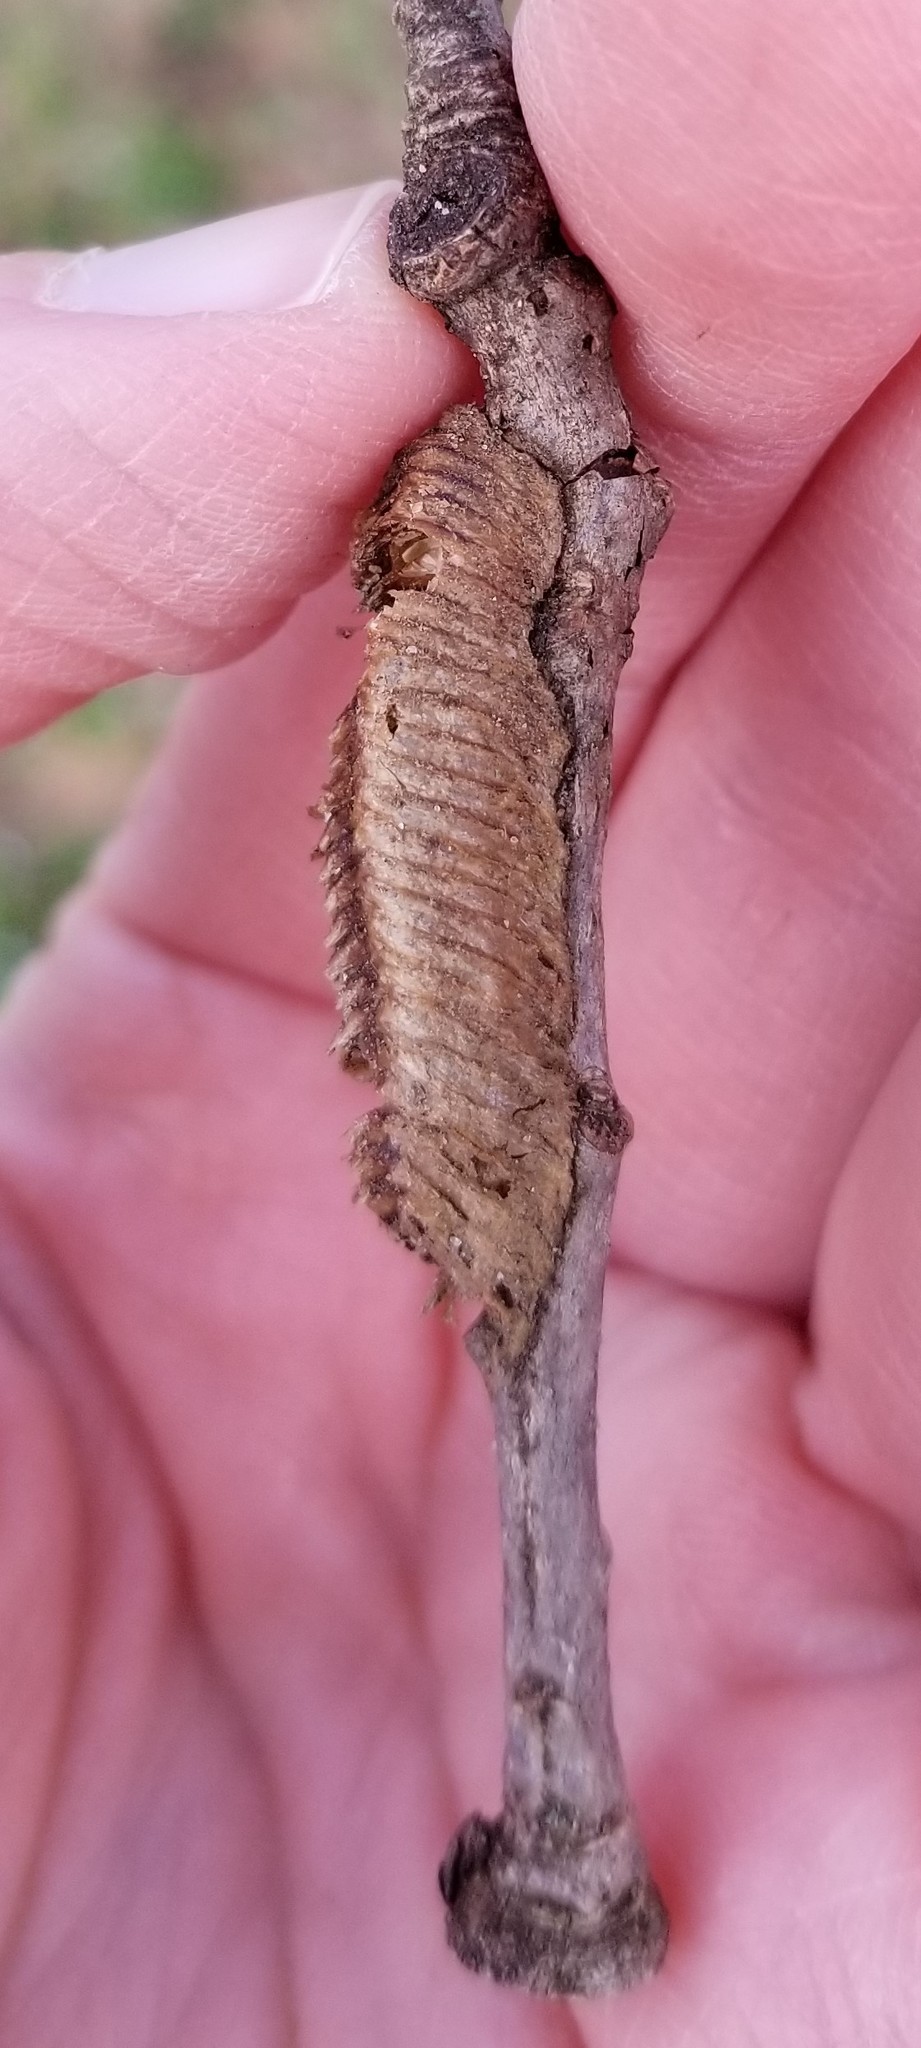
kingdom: Animalia
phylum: Arthropoda
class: Insecta
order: Mantodea
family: Mantidae
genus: Stagmomantis
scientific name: Stagmomantis carolina
